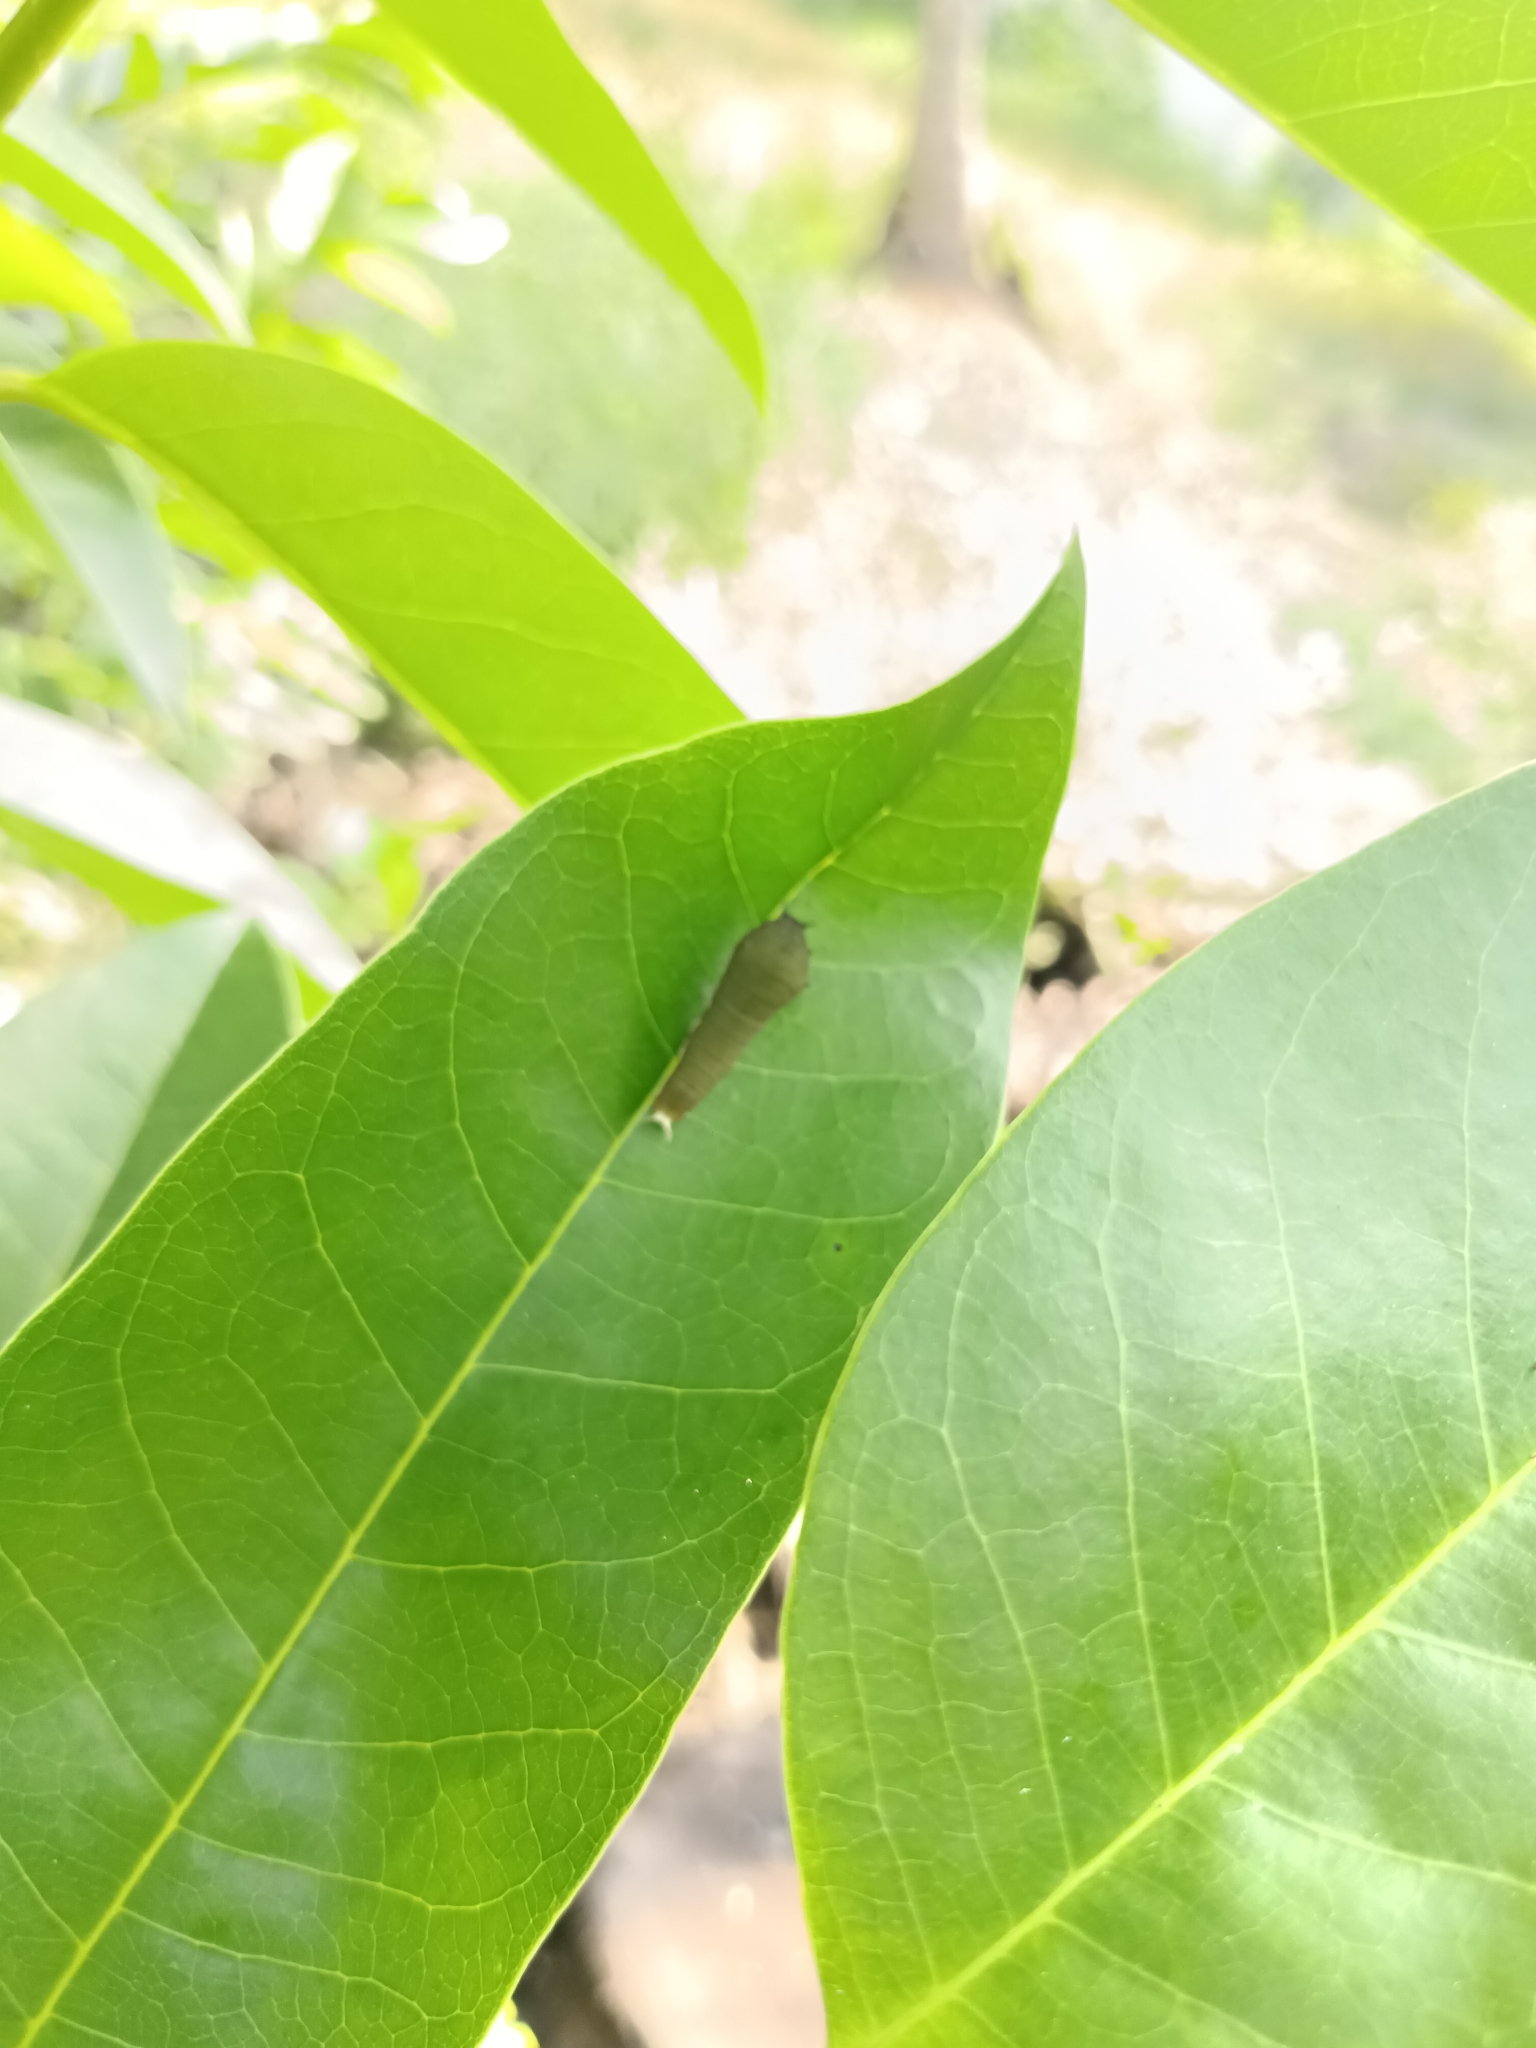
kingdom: Animalia
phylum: Arthropoda
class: Insecta
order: Lepidoptera
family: Papilionidae
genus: Graphium
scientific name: Graphium doson
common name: Common jay
